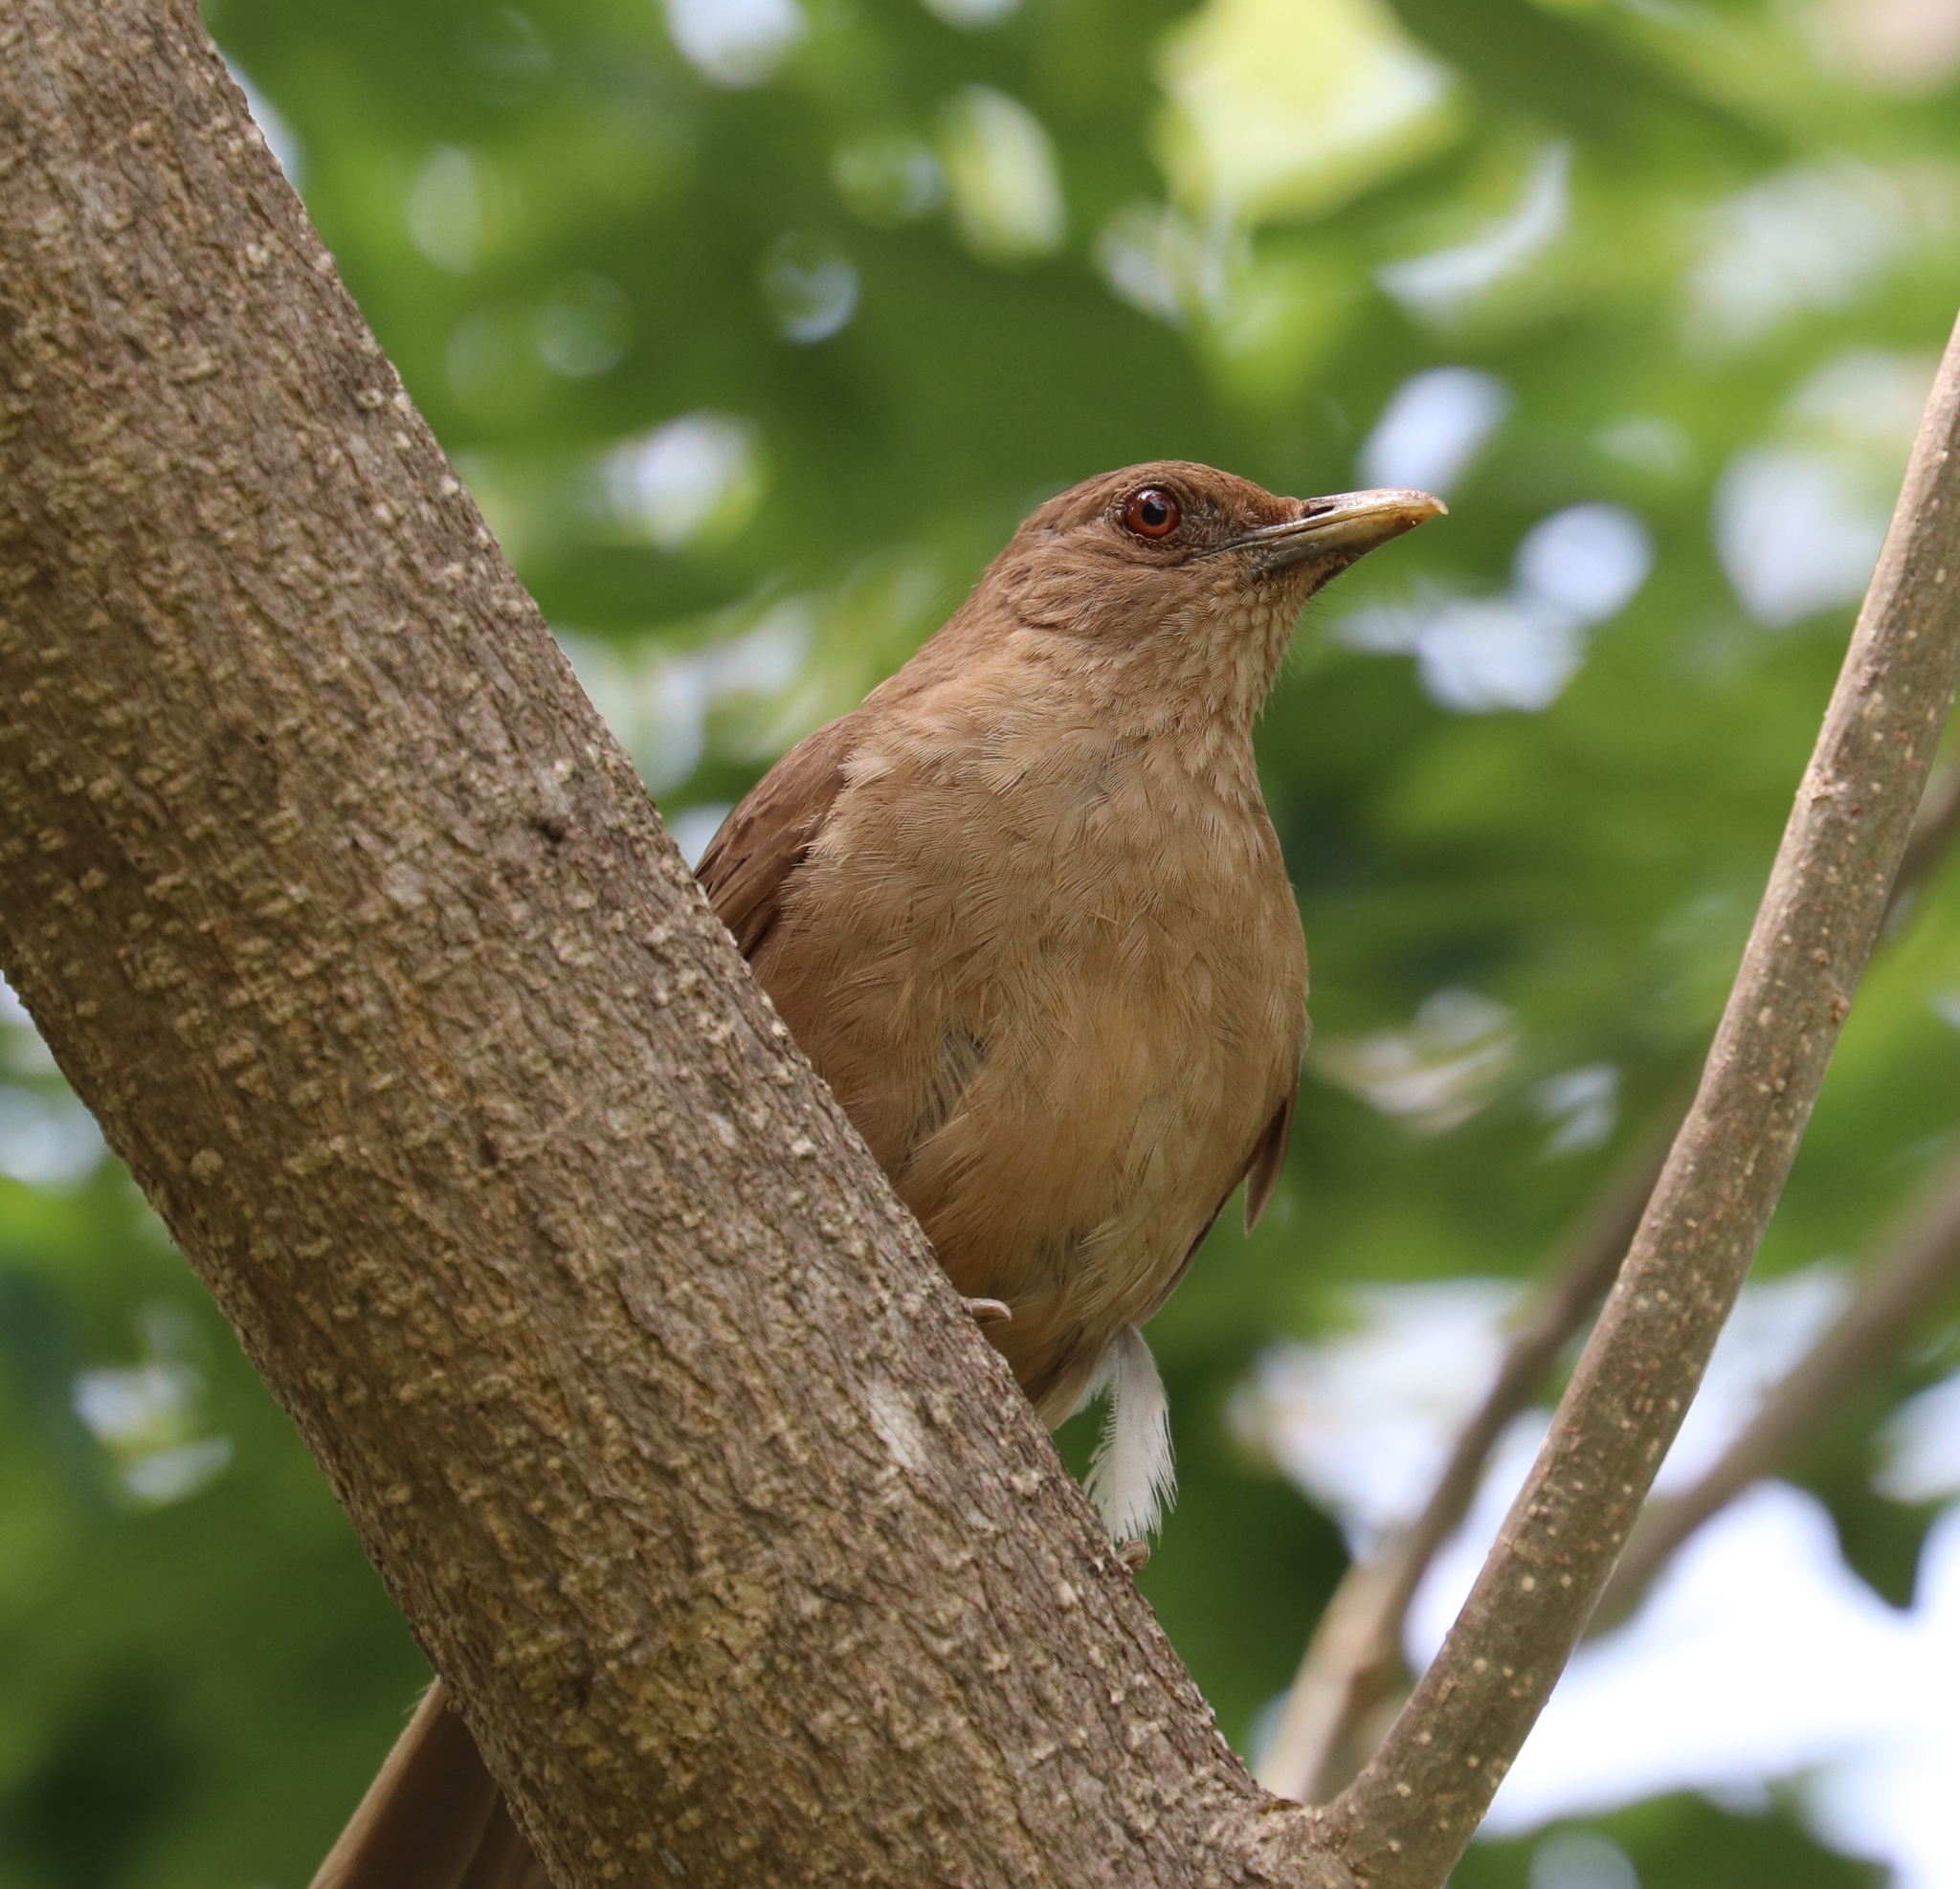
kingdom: Animalia
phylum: Chordata
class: Aves
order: Passeriformes
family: Turdidae
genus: Turdus
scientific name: Turdus grayi
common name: Clay-colored thrush
